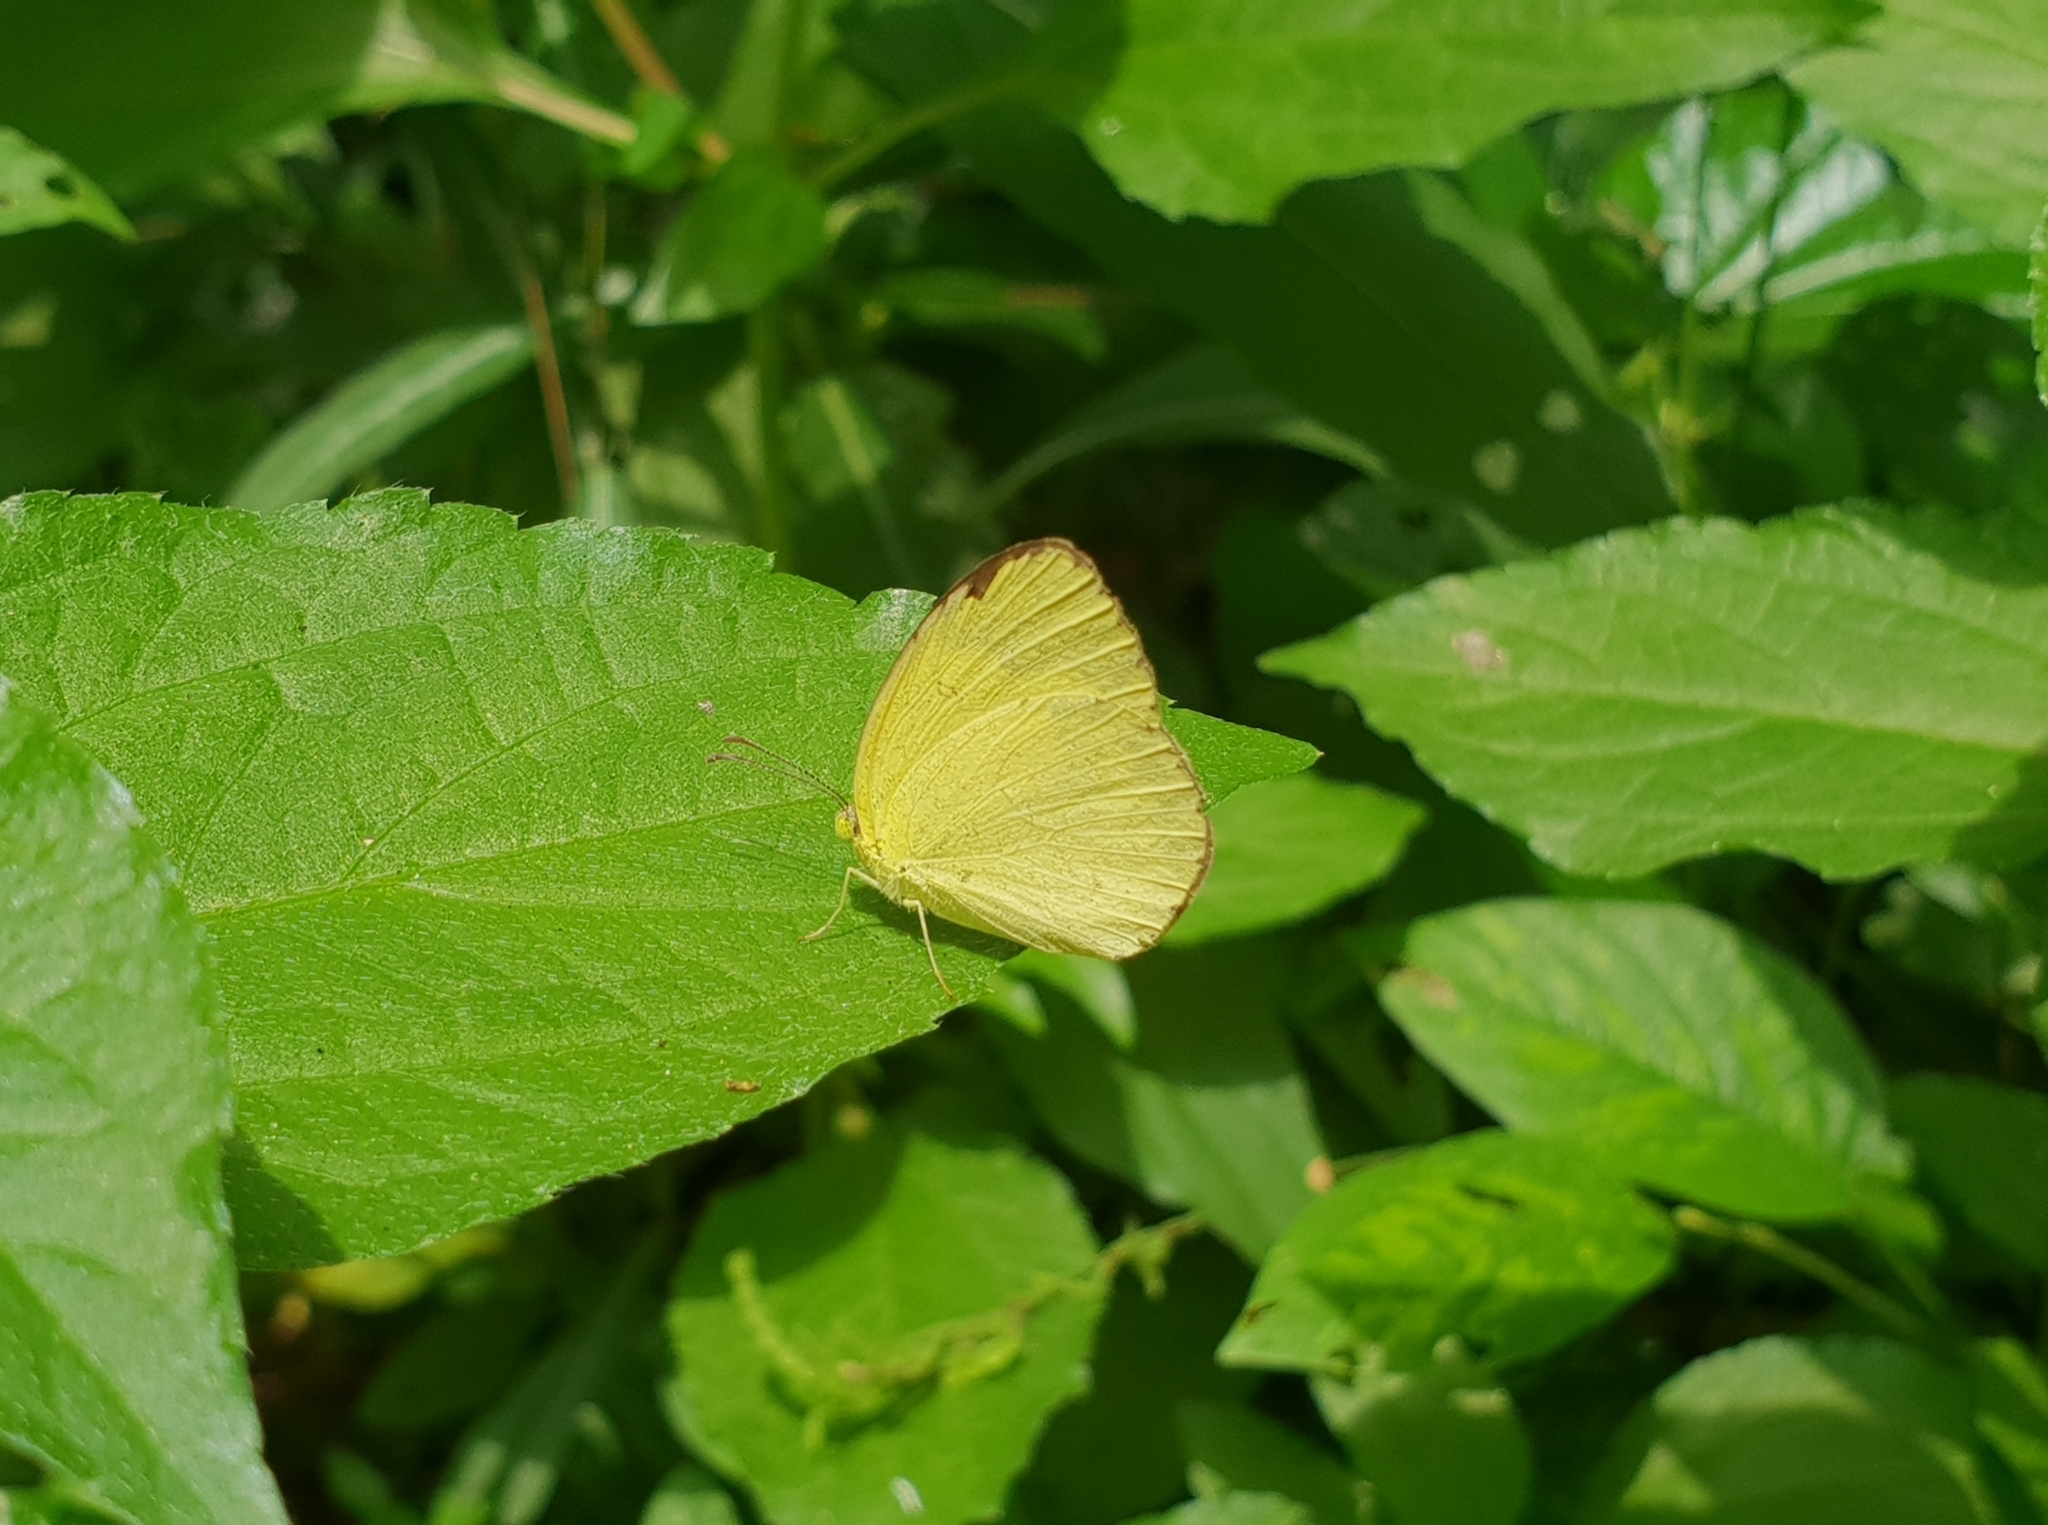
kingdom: Animalia
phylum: Arthropoda
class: Insecta
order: Lepidoptera
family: Pieridae
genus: Eurema
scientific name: Eurema laeta
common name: Spotless grass yellow
